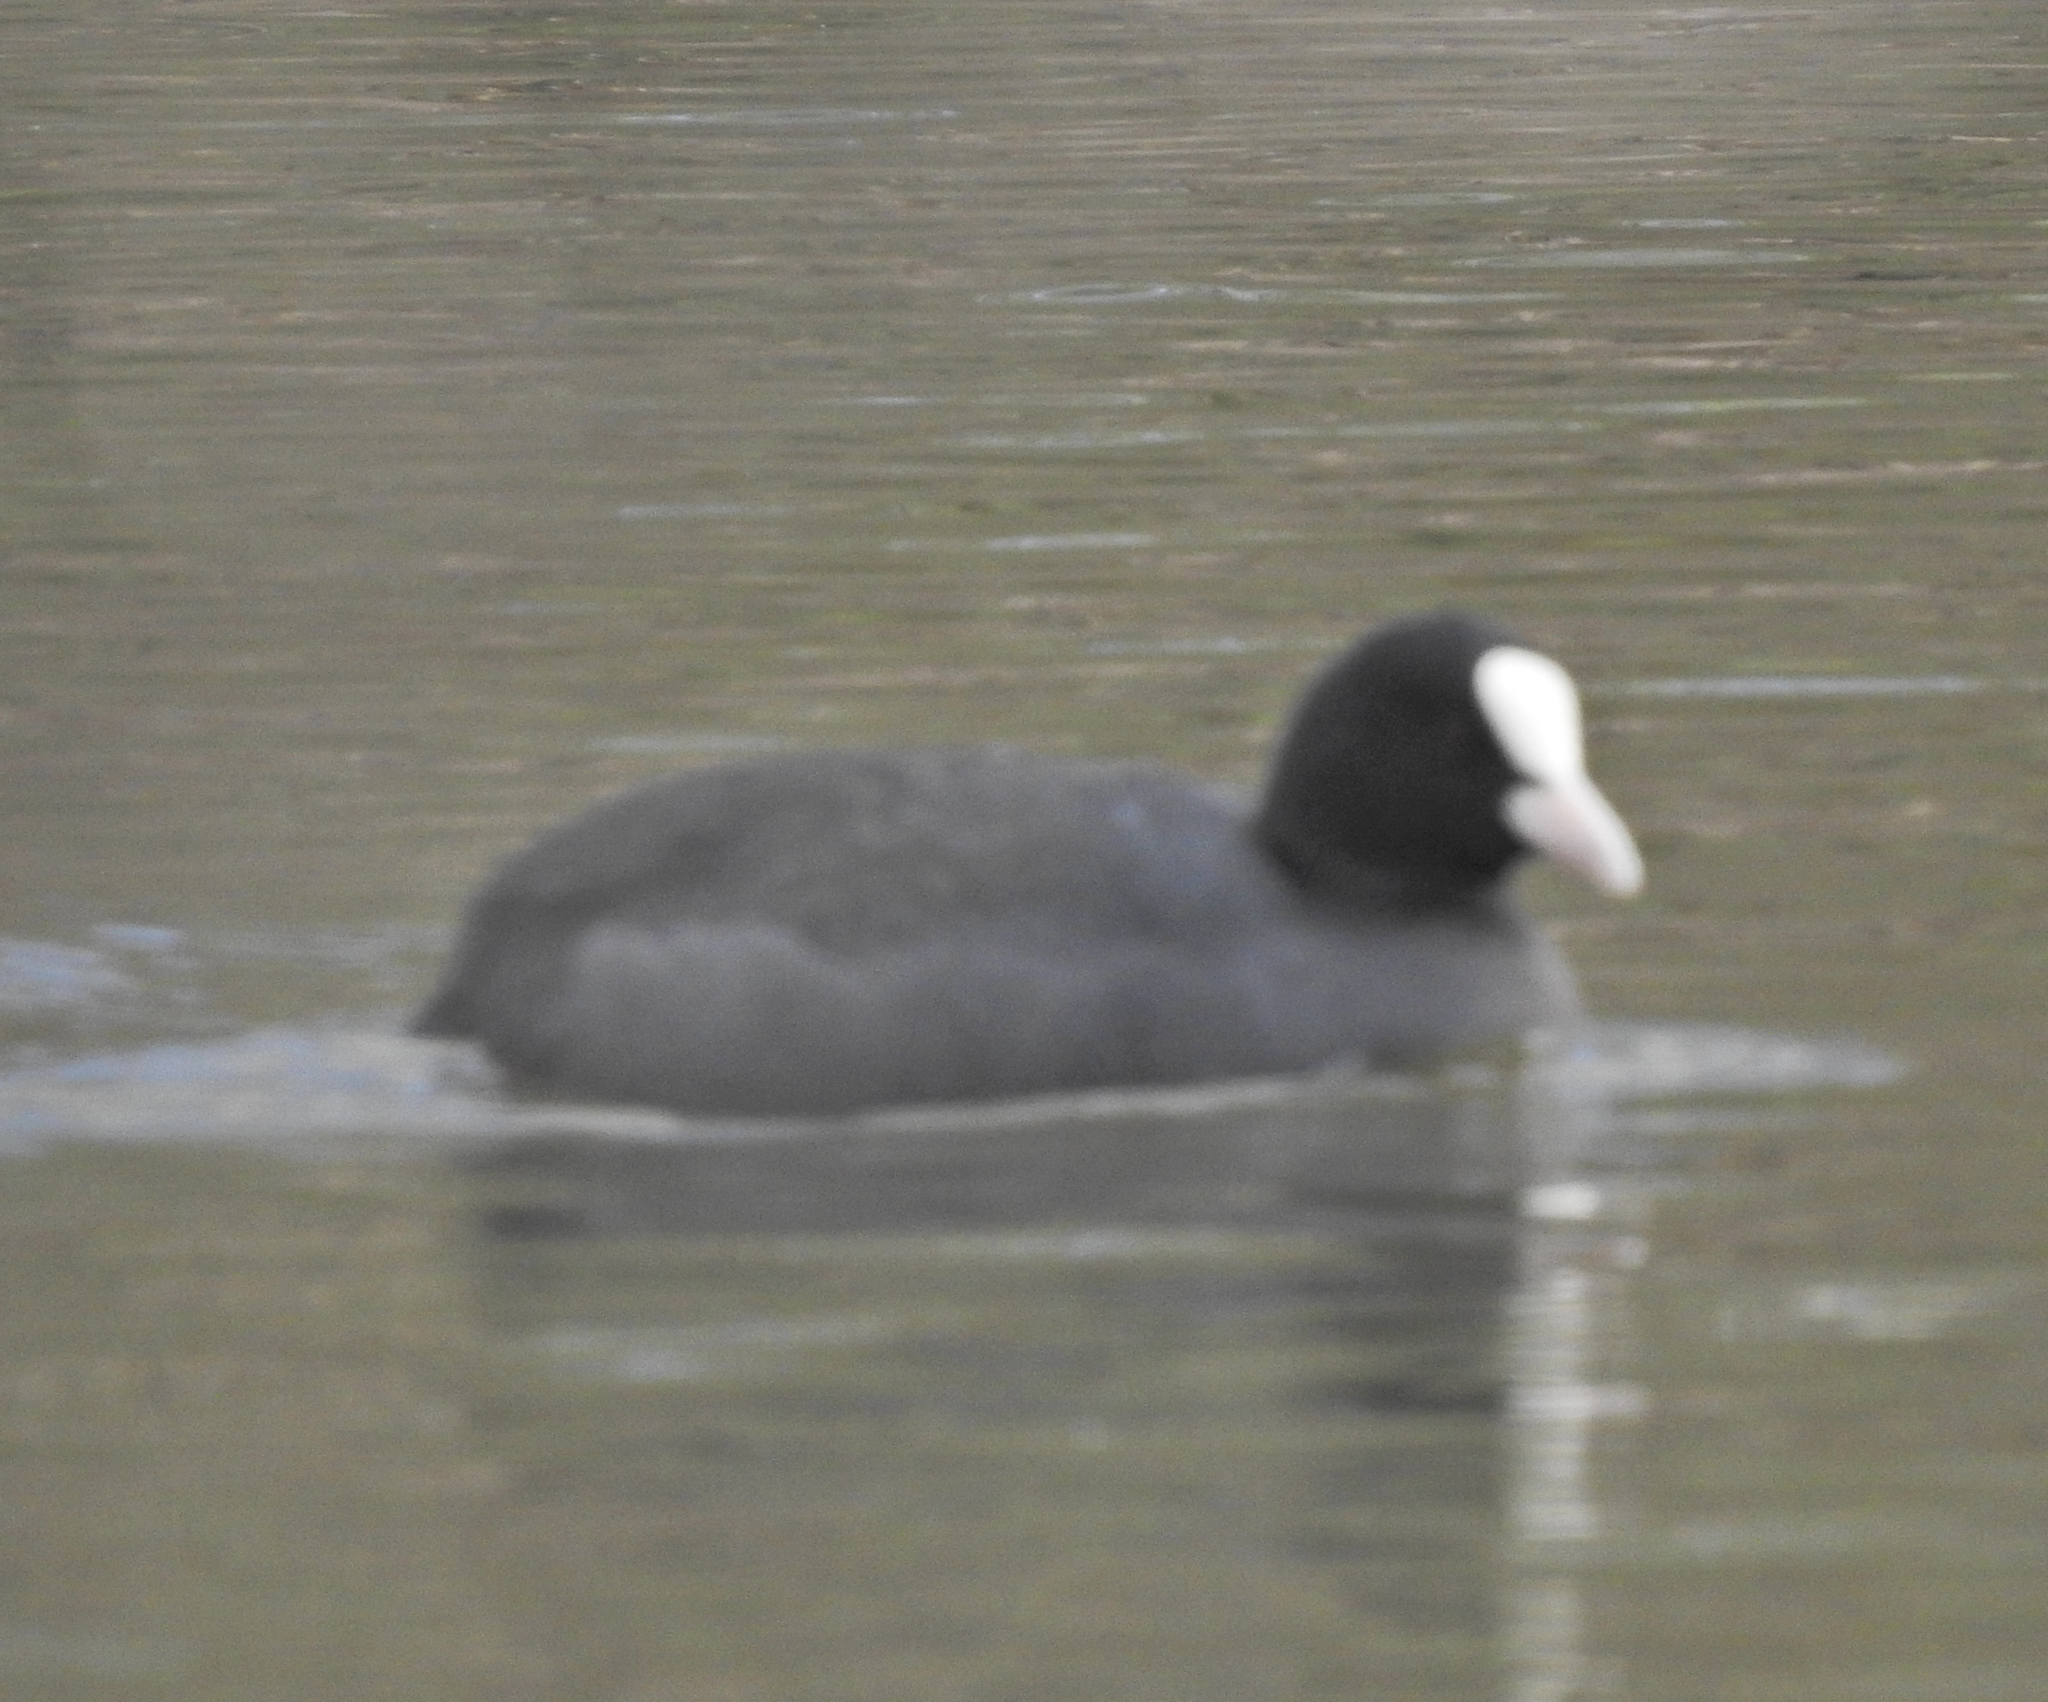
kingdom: Animalia
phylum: Chordata
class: Aves
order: Gruiformes
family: Rallidae
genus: Fulica
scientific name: Fulica atra
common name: Eurasian coot
